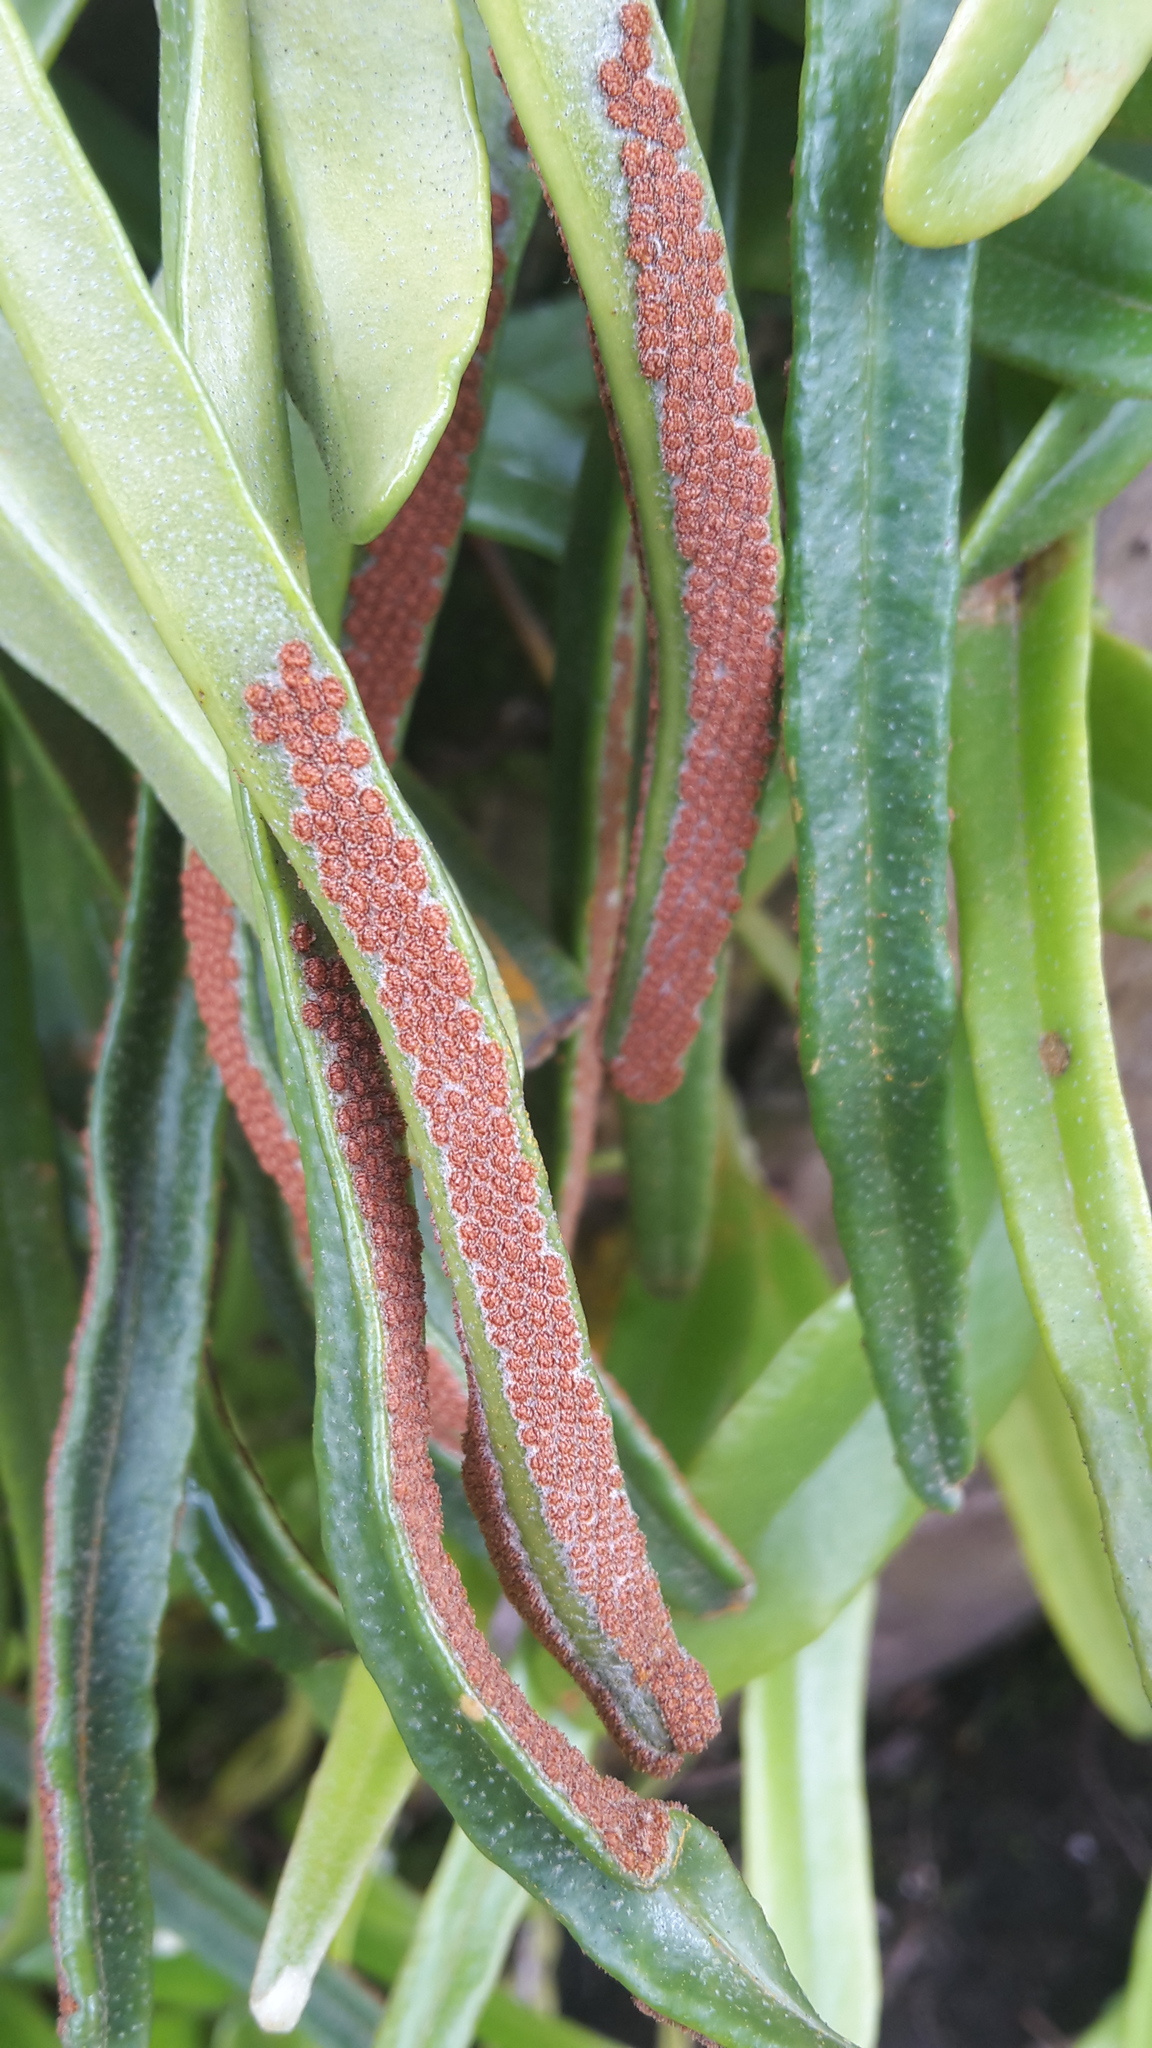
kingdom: Plantae
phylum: Tracheophyta
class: Polypodiopsida
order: Polypodiales
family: Polypodiaceae
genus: Pyrrosia
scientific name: Pyrrosia adnascens
